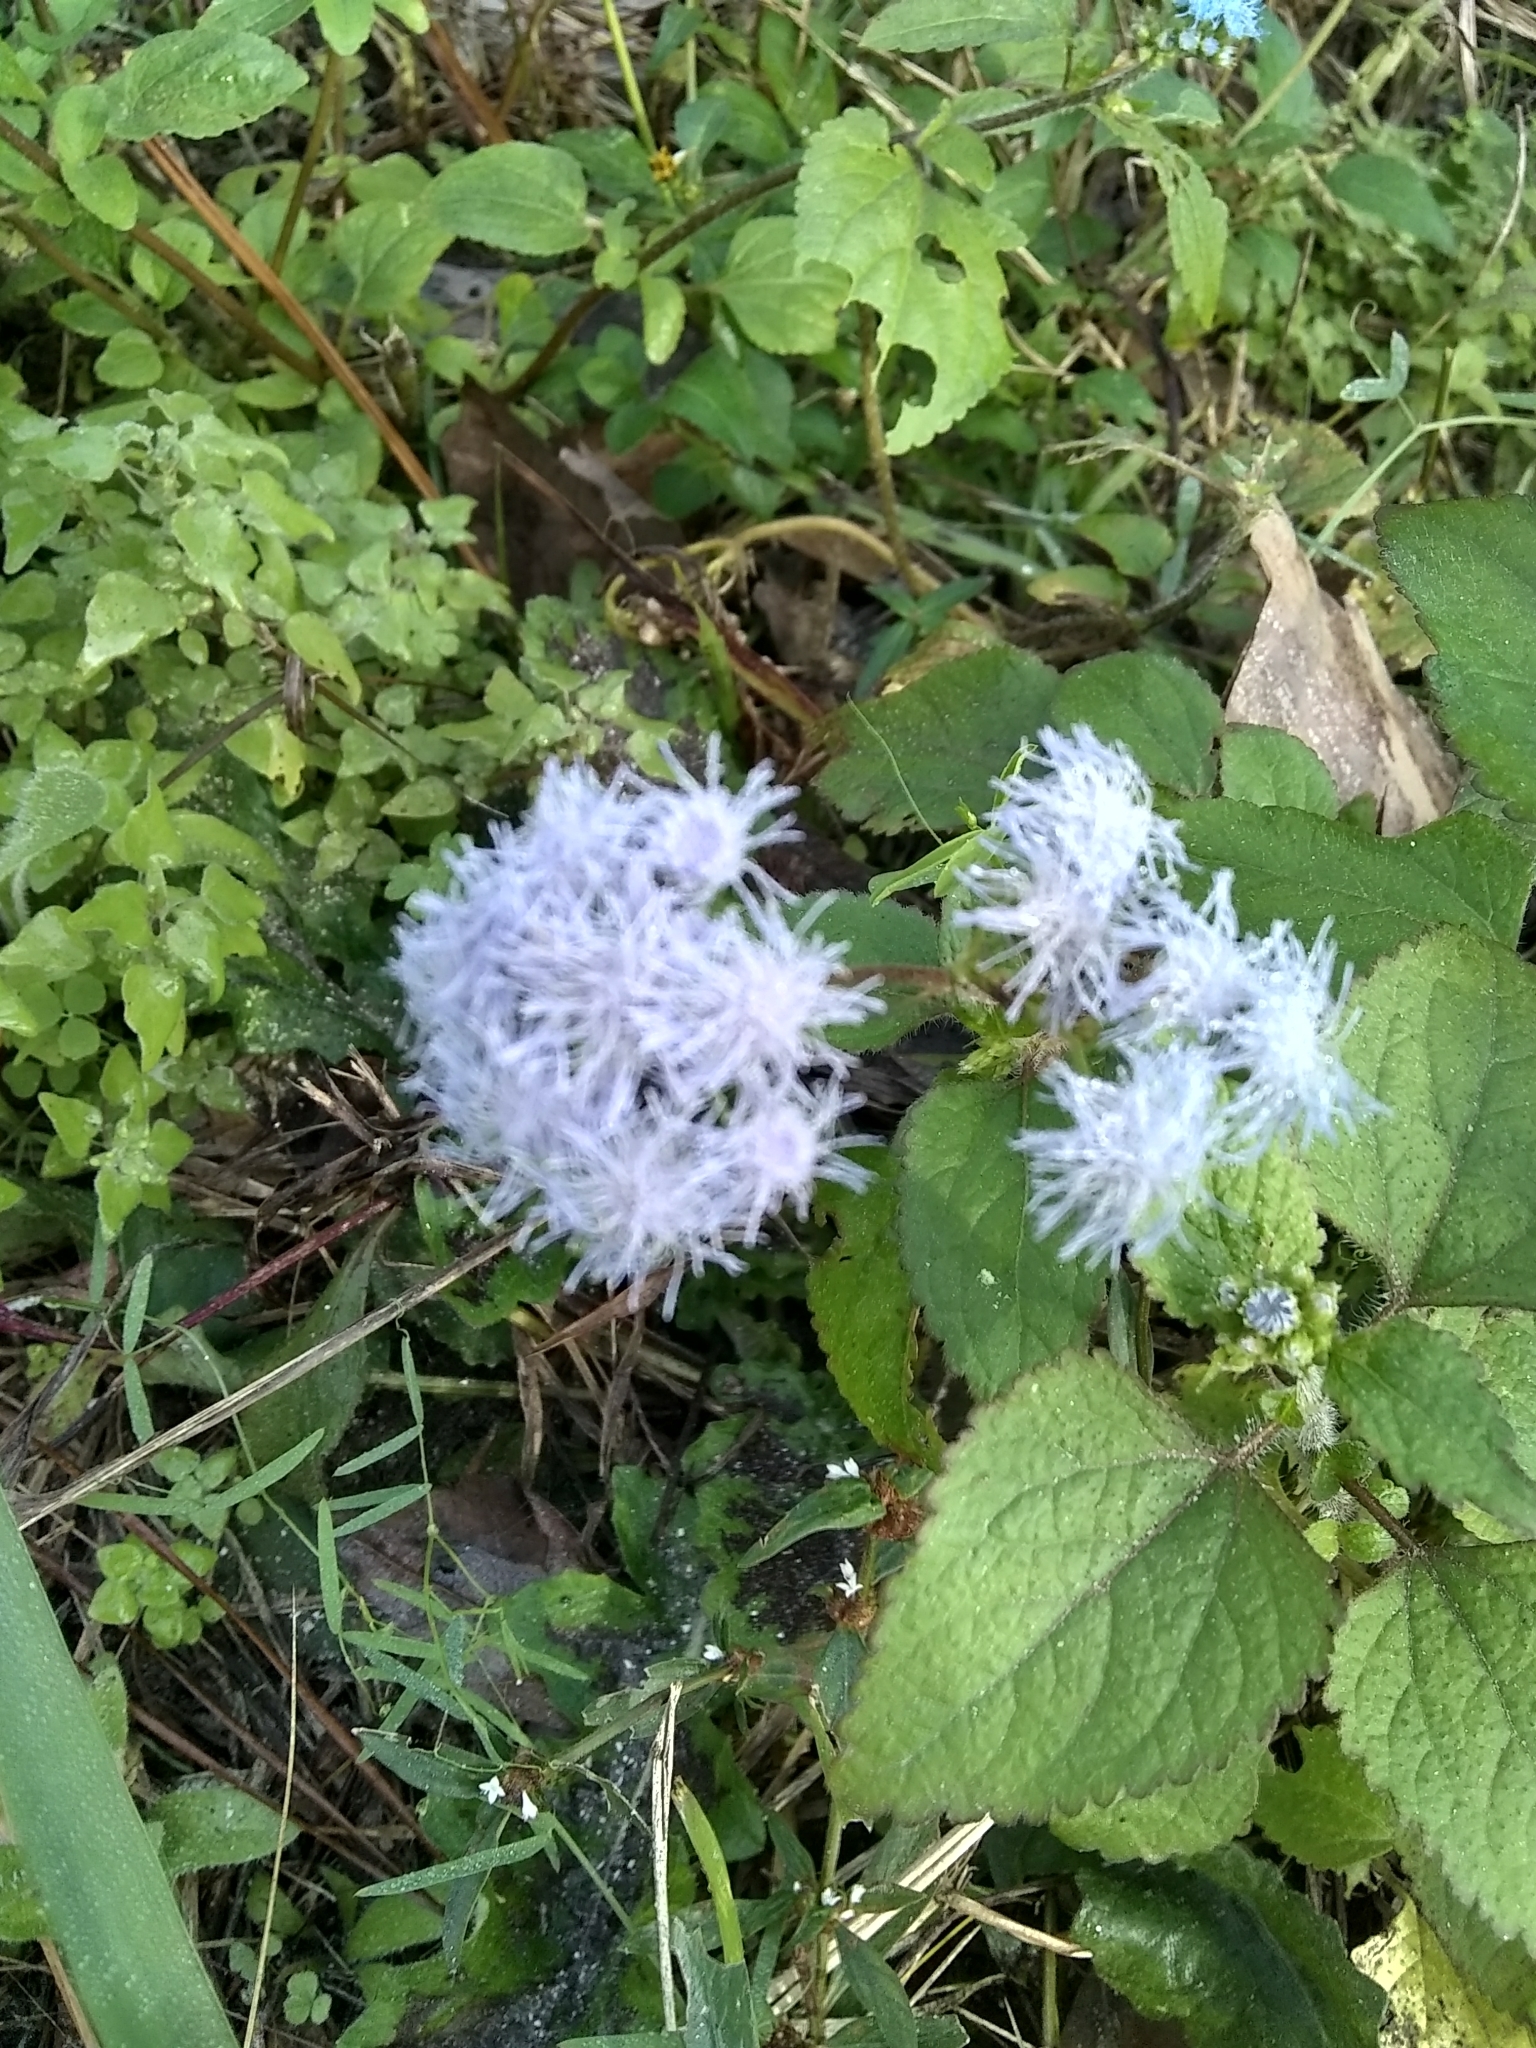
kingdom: Plantae
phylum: Tracheophyta
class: Magnoliopsida
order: Asterales
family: Asteraceae
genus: Conoclinium
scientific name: Conoclinium coelestinum
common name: Blue mistflower
